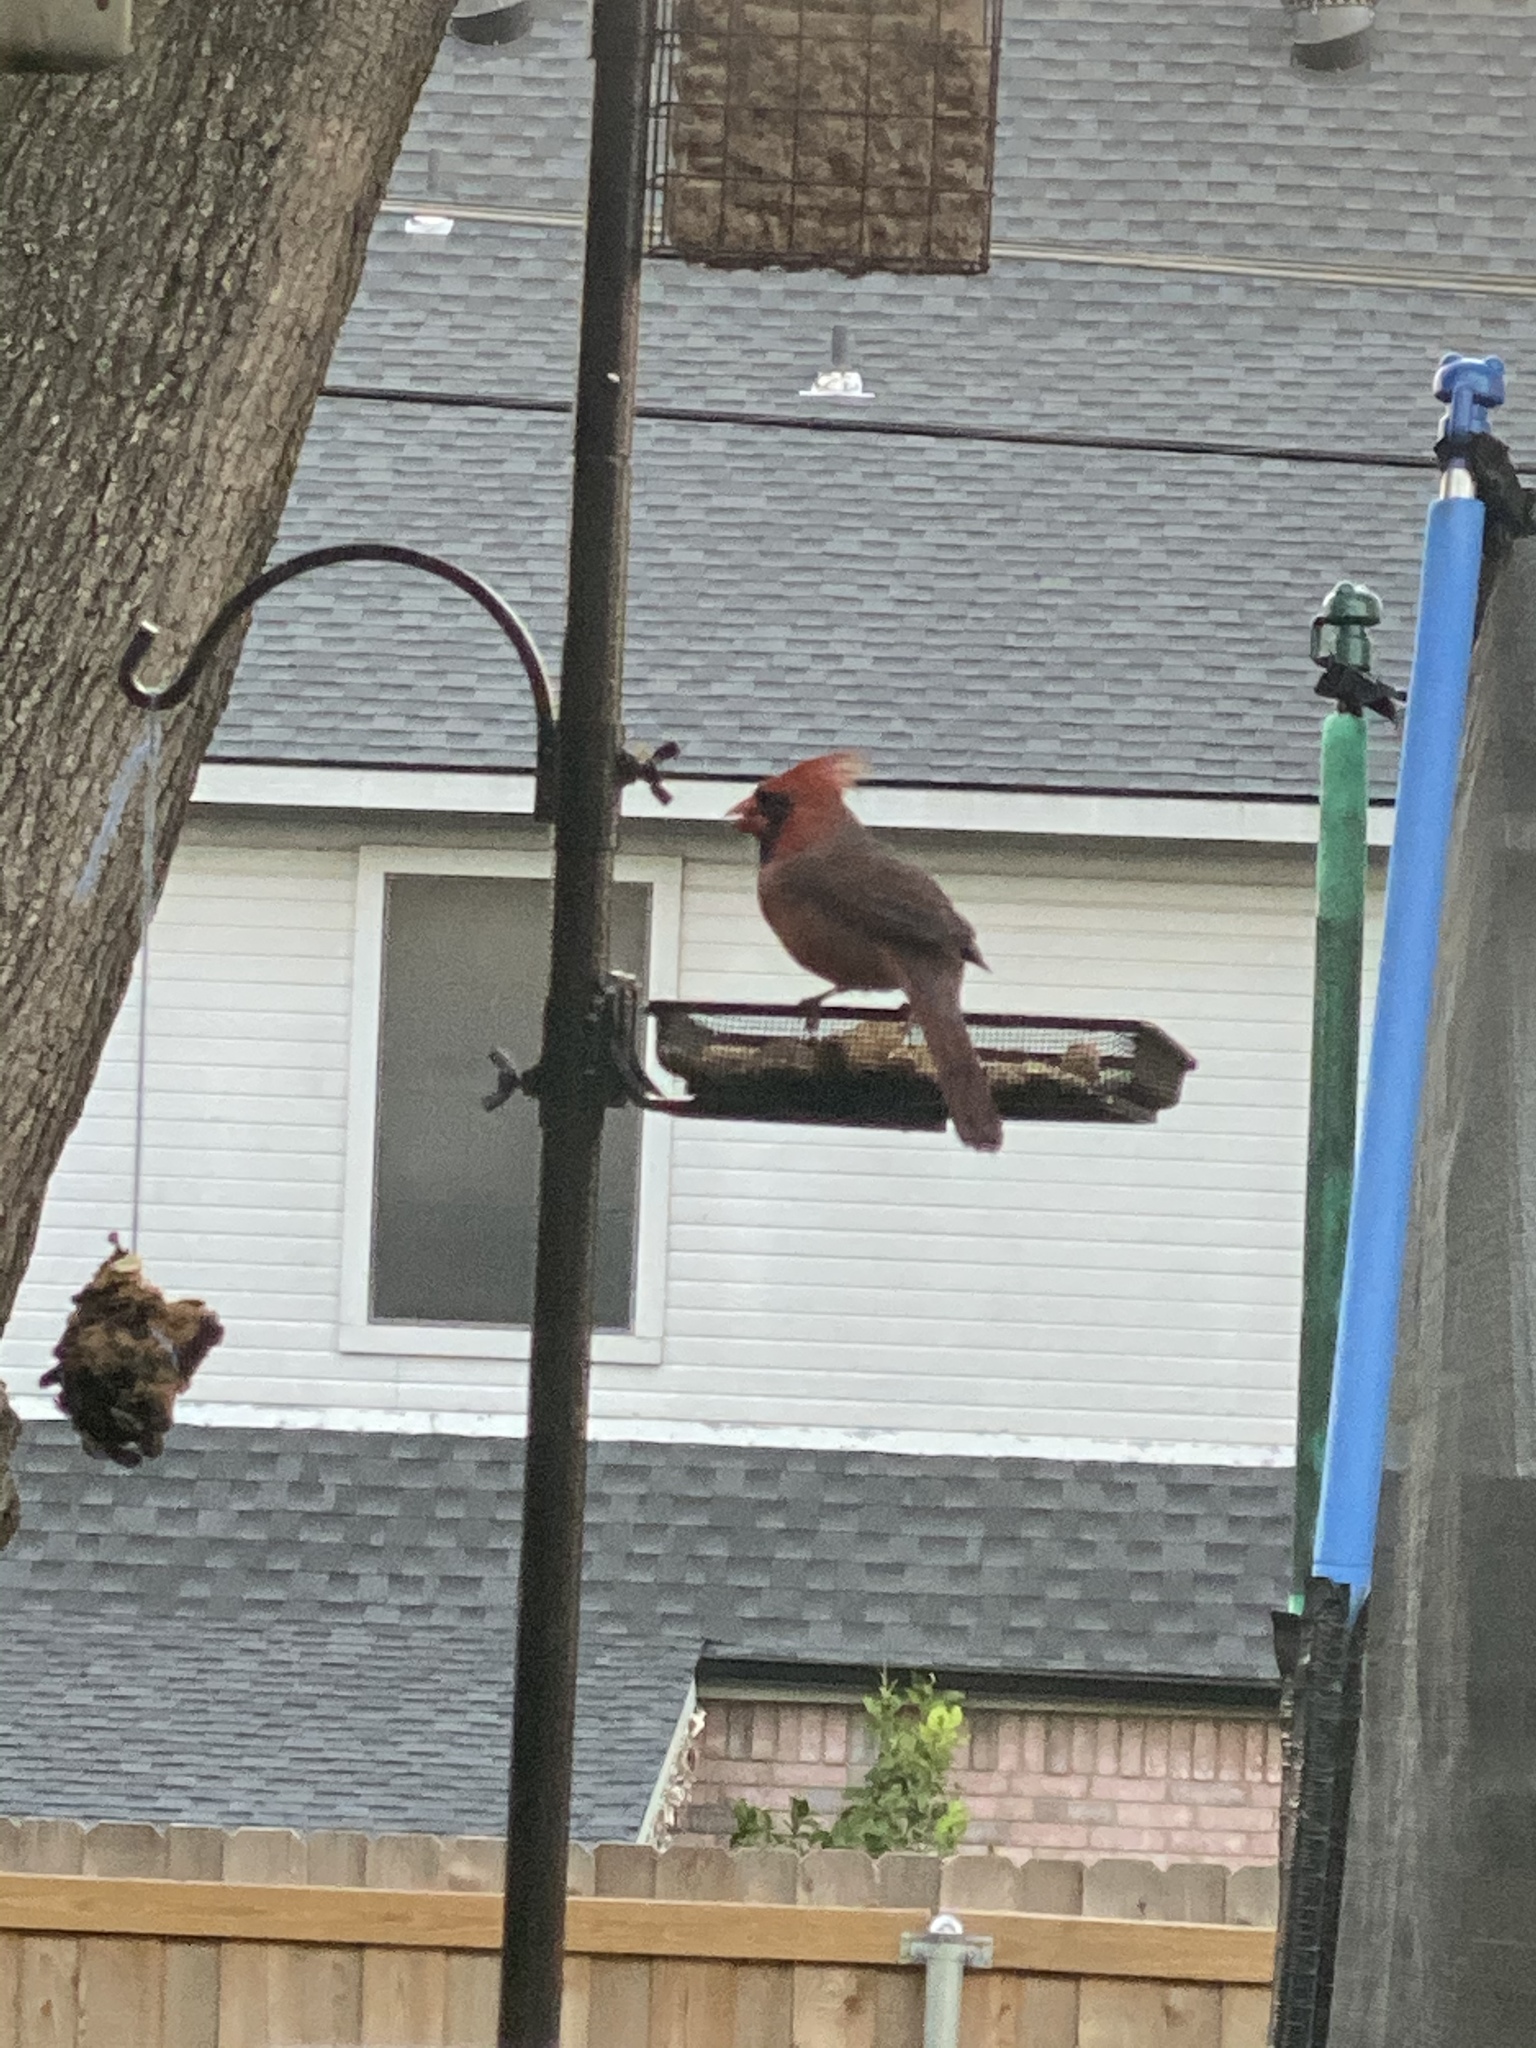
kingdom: Animalia
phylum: Chordata
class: Aves
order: Passeriformes
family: Cardinalidae
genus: Cardinalis
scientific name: Cardinalis cardinalis
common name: Northern cardinal
